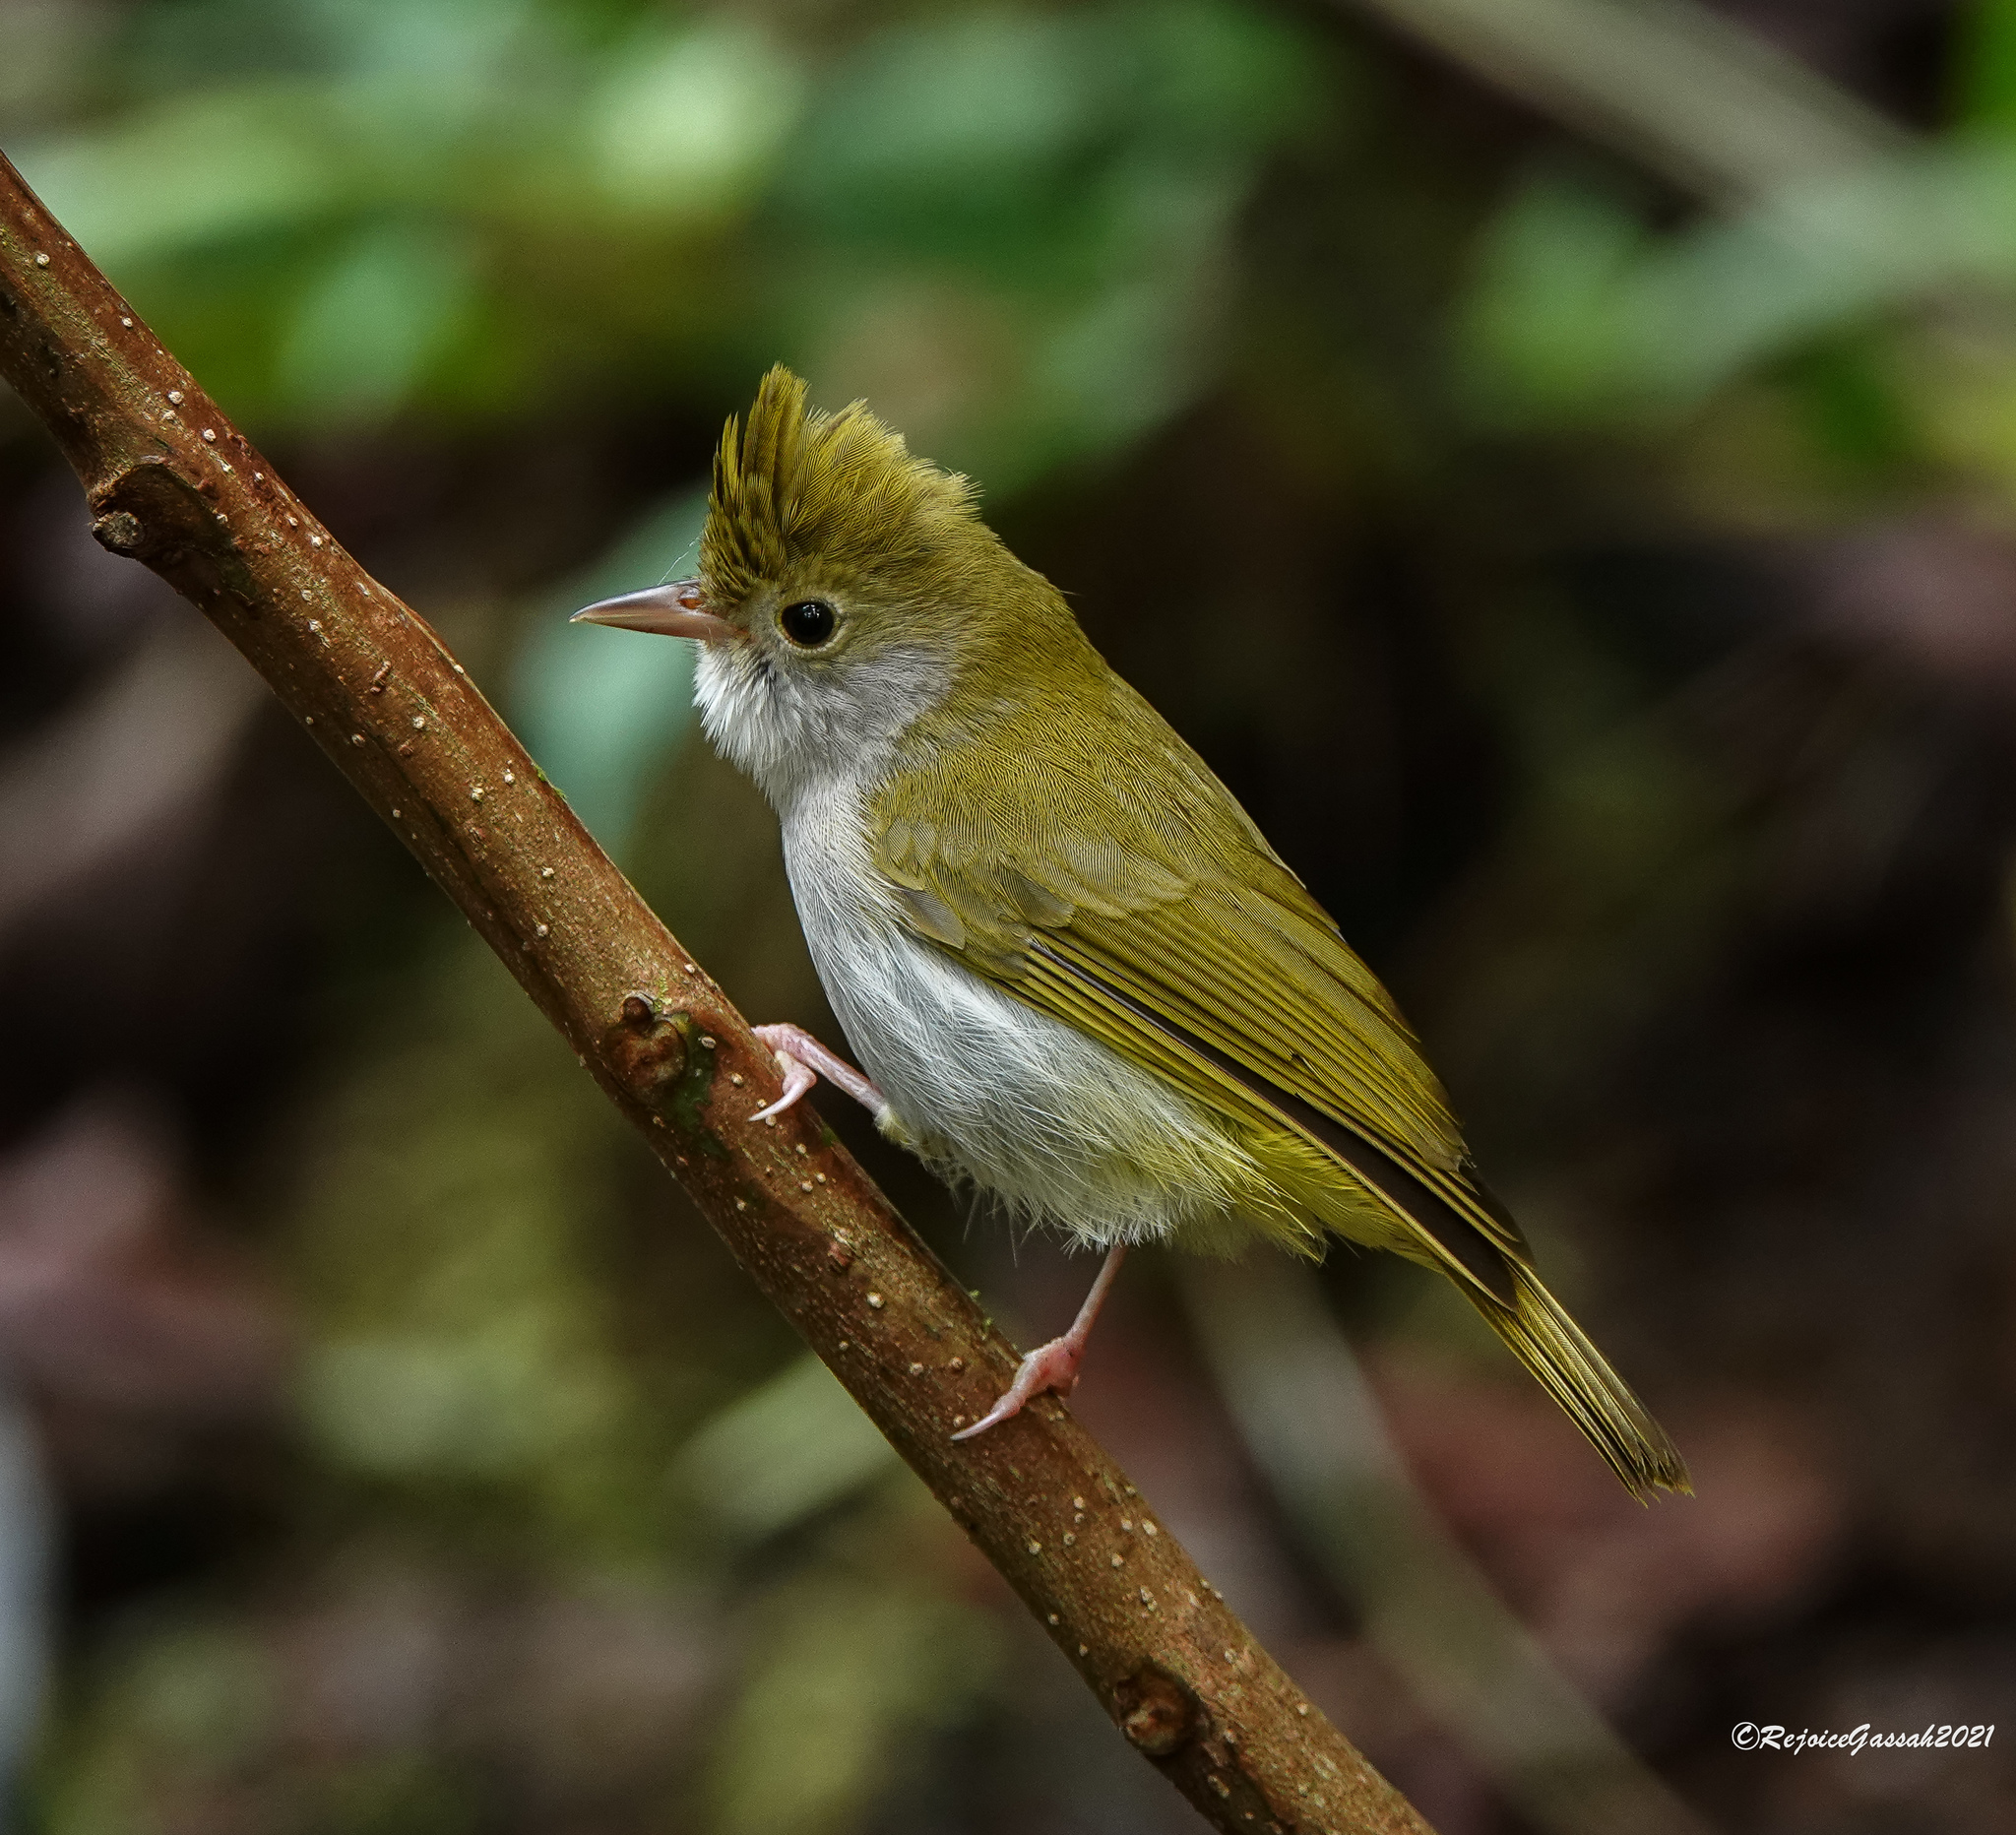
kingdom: Animalia
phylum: Chordata
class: Aves
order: Passeriformes
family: Vireonidae
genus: Erpornis
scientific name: Erpornis zantholeuca
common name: White-bellied erpornis
